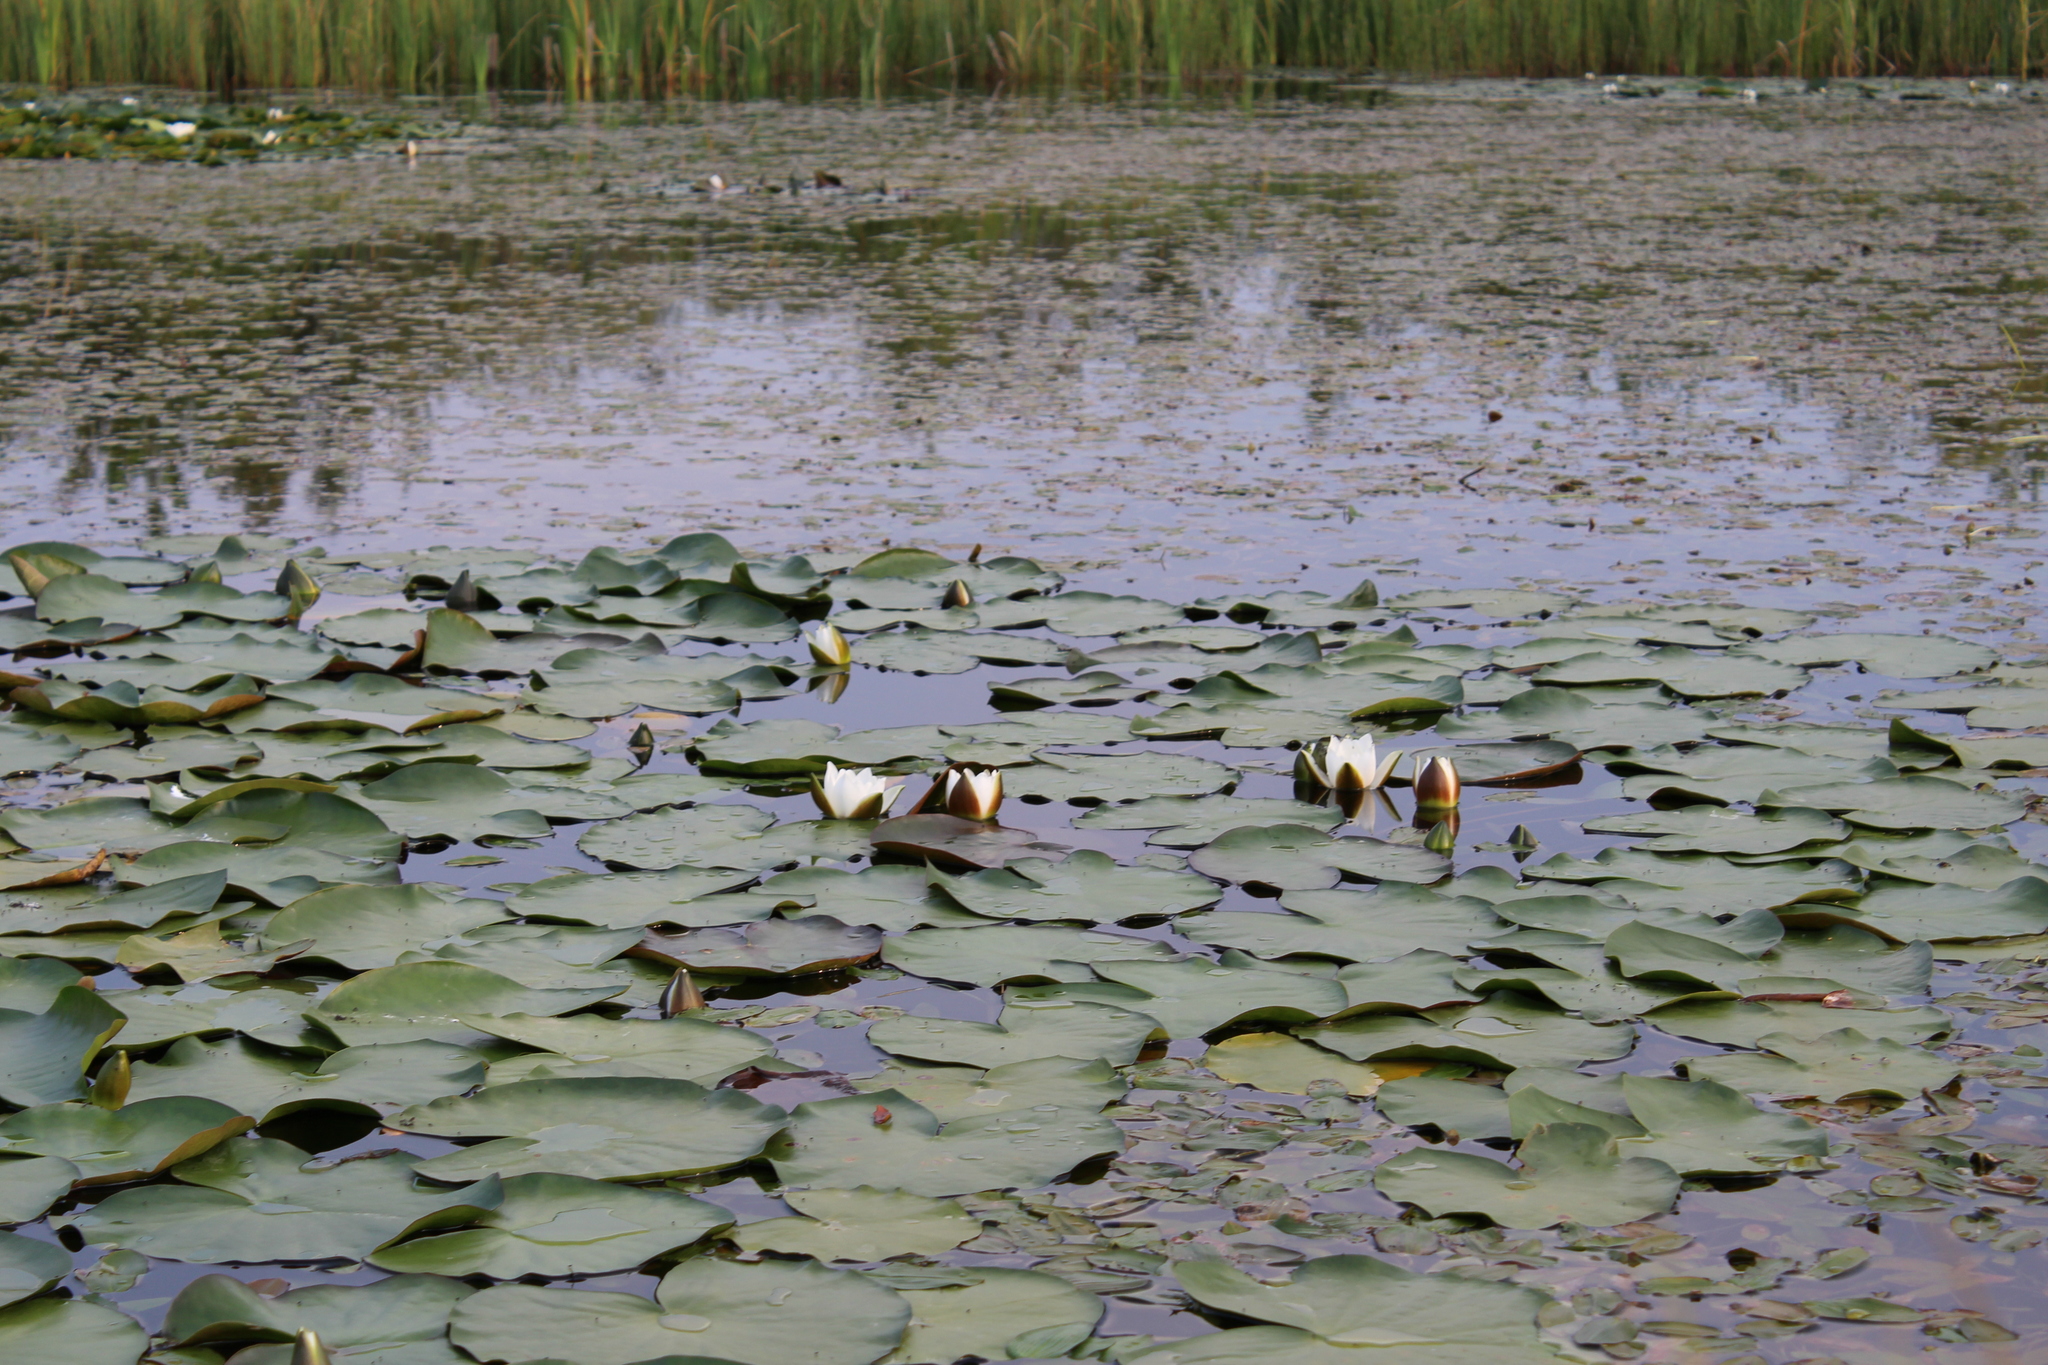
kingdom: Plantae
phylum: Tracheophyta
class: Magnoliopsida
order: Nymphaeales
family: Nymphaeaceae
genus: Nymphaea
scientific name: Nymphaea candida
